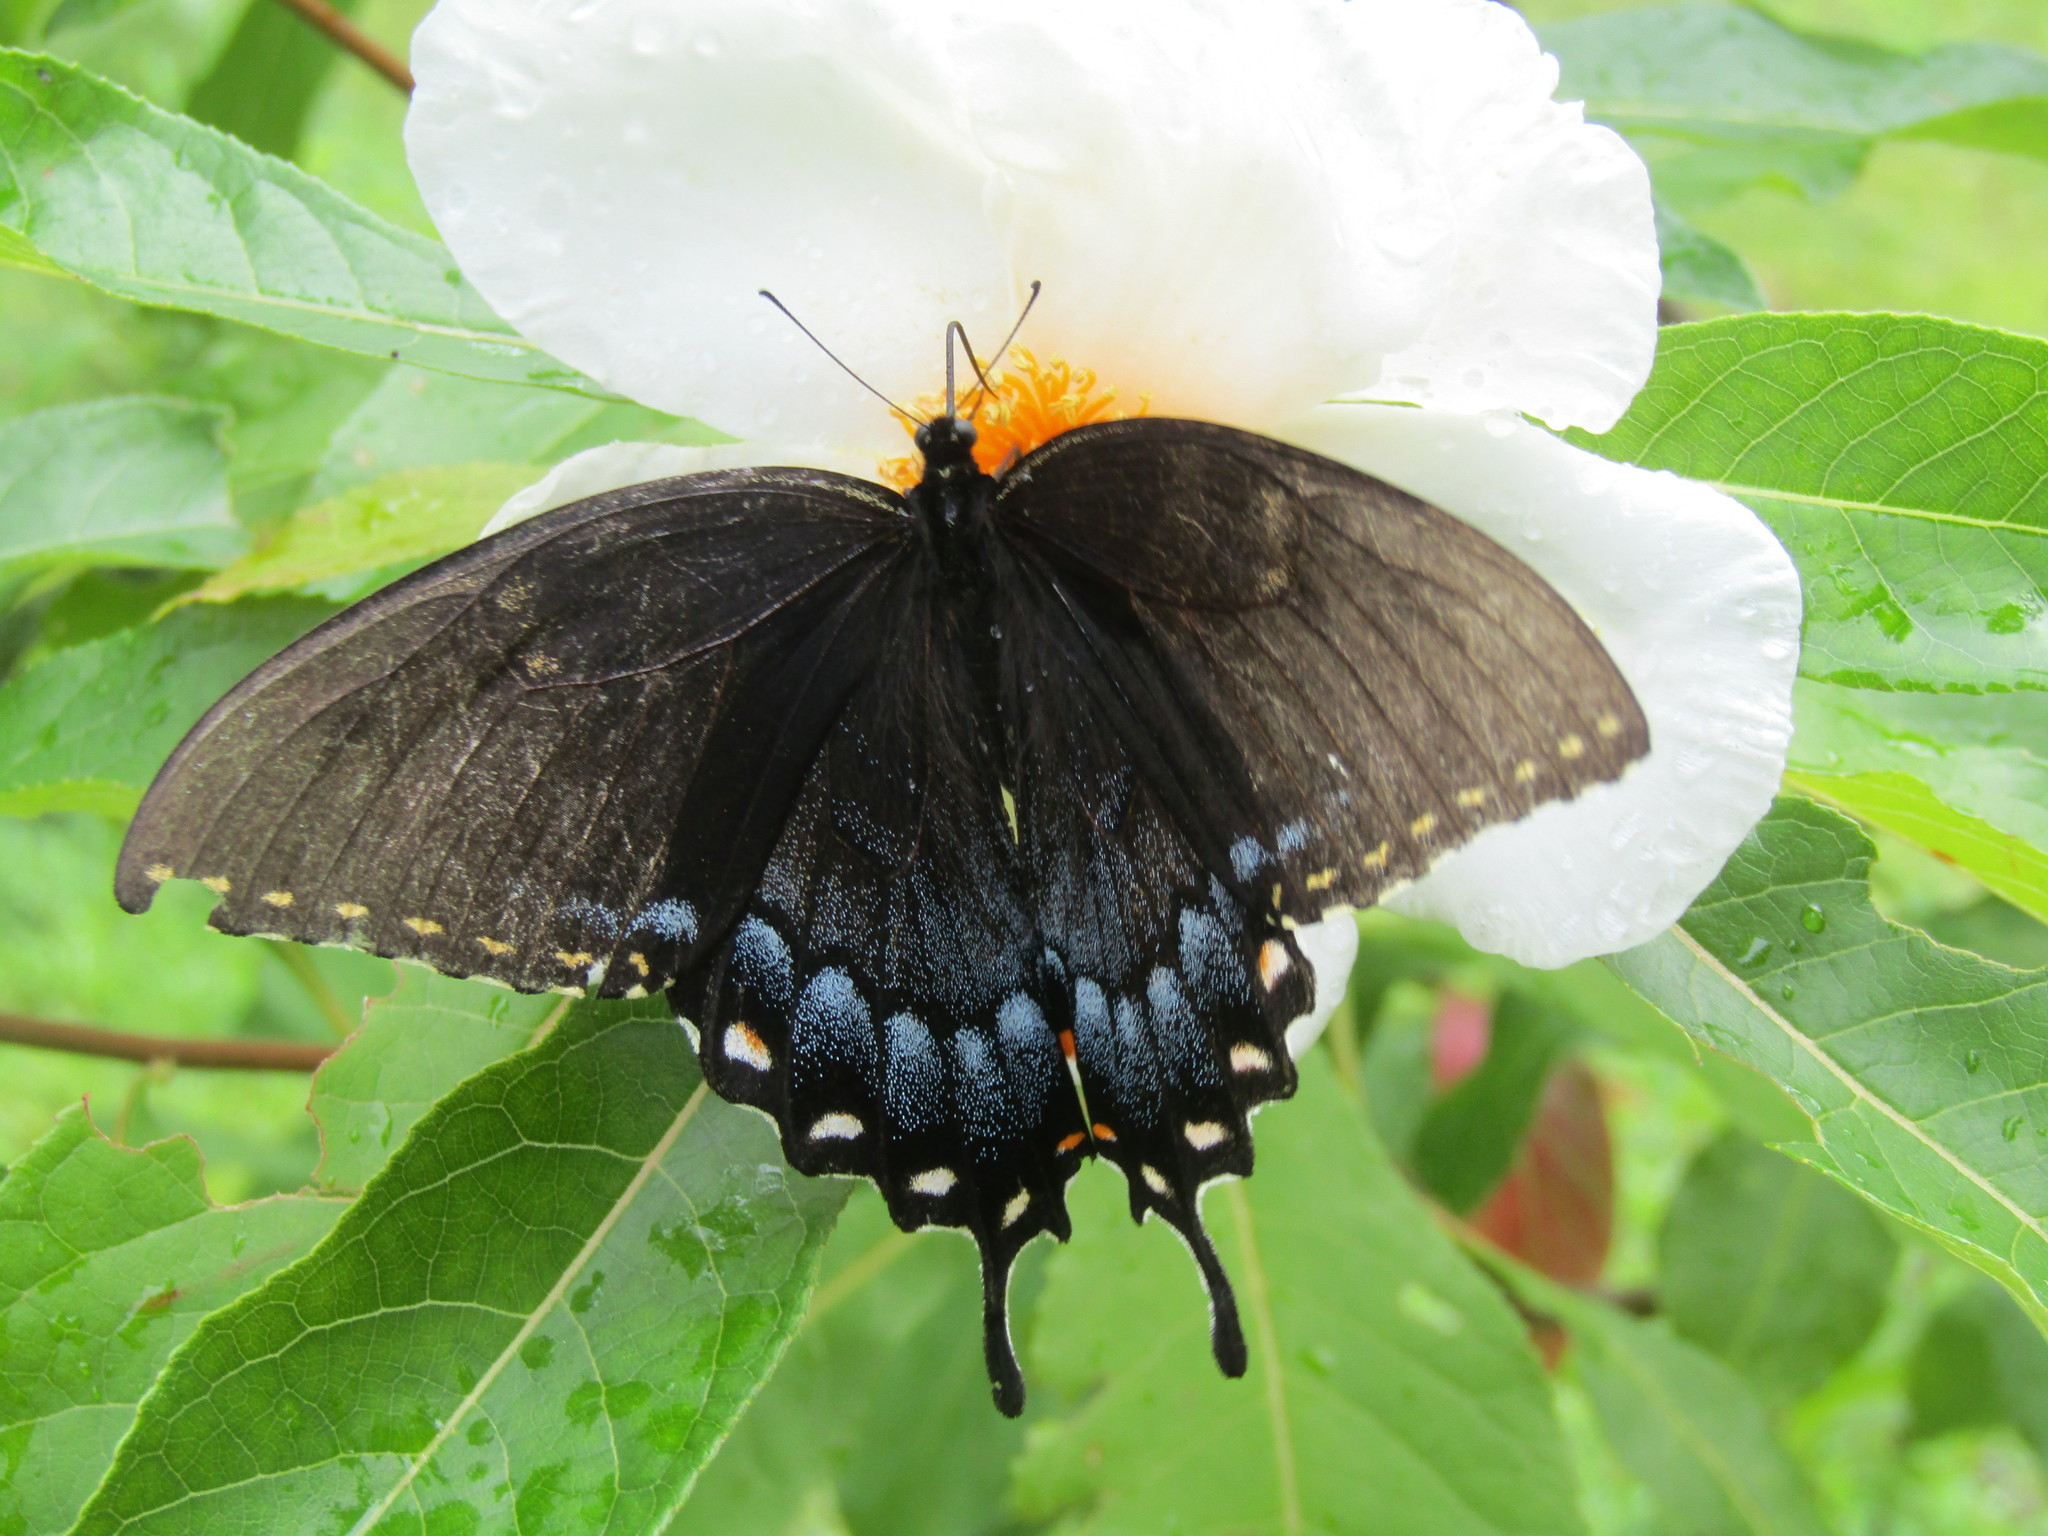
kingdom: Animalia
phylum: Arthropoda
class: Insecta
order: Lepidoptera
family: Papilionidae
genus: Papilio
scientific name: Papilio glaucus
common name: Tiger swallowtail
